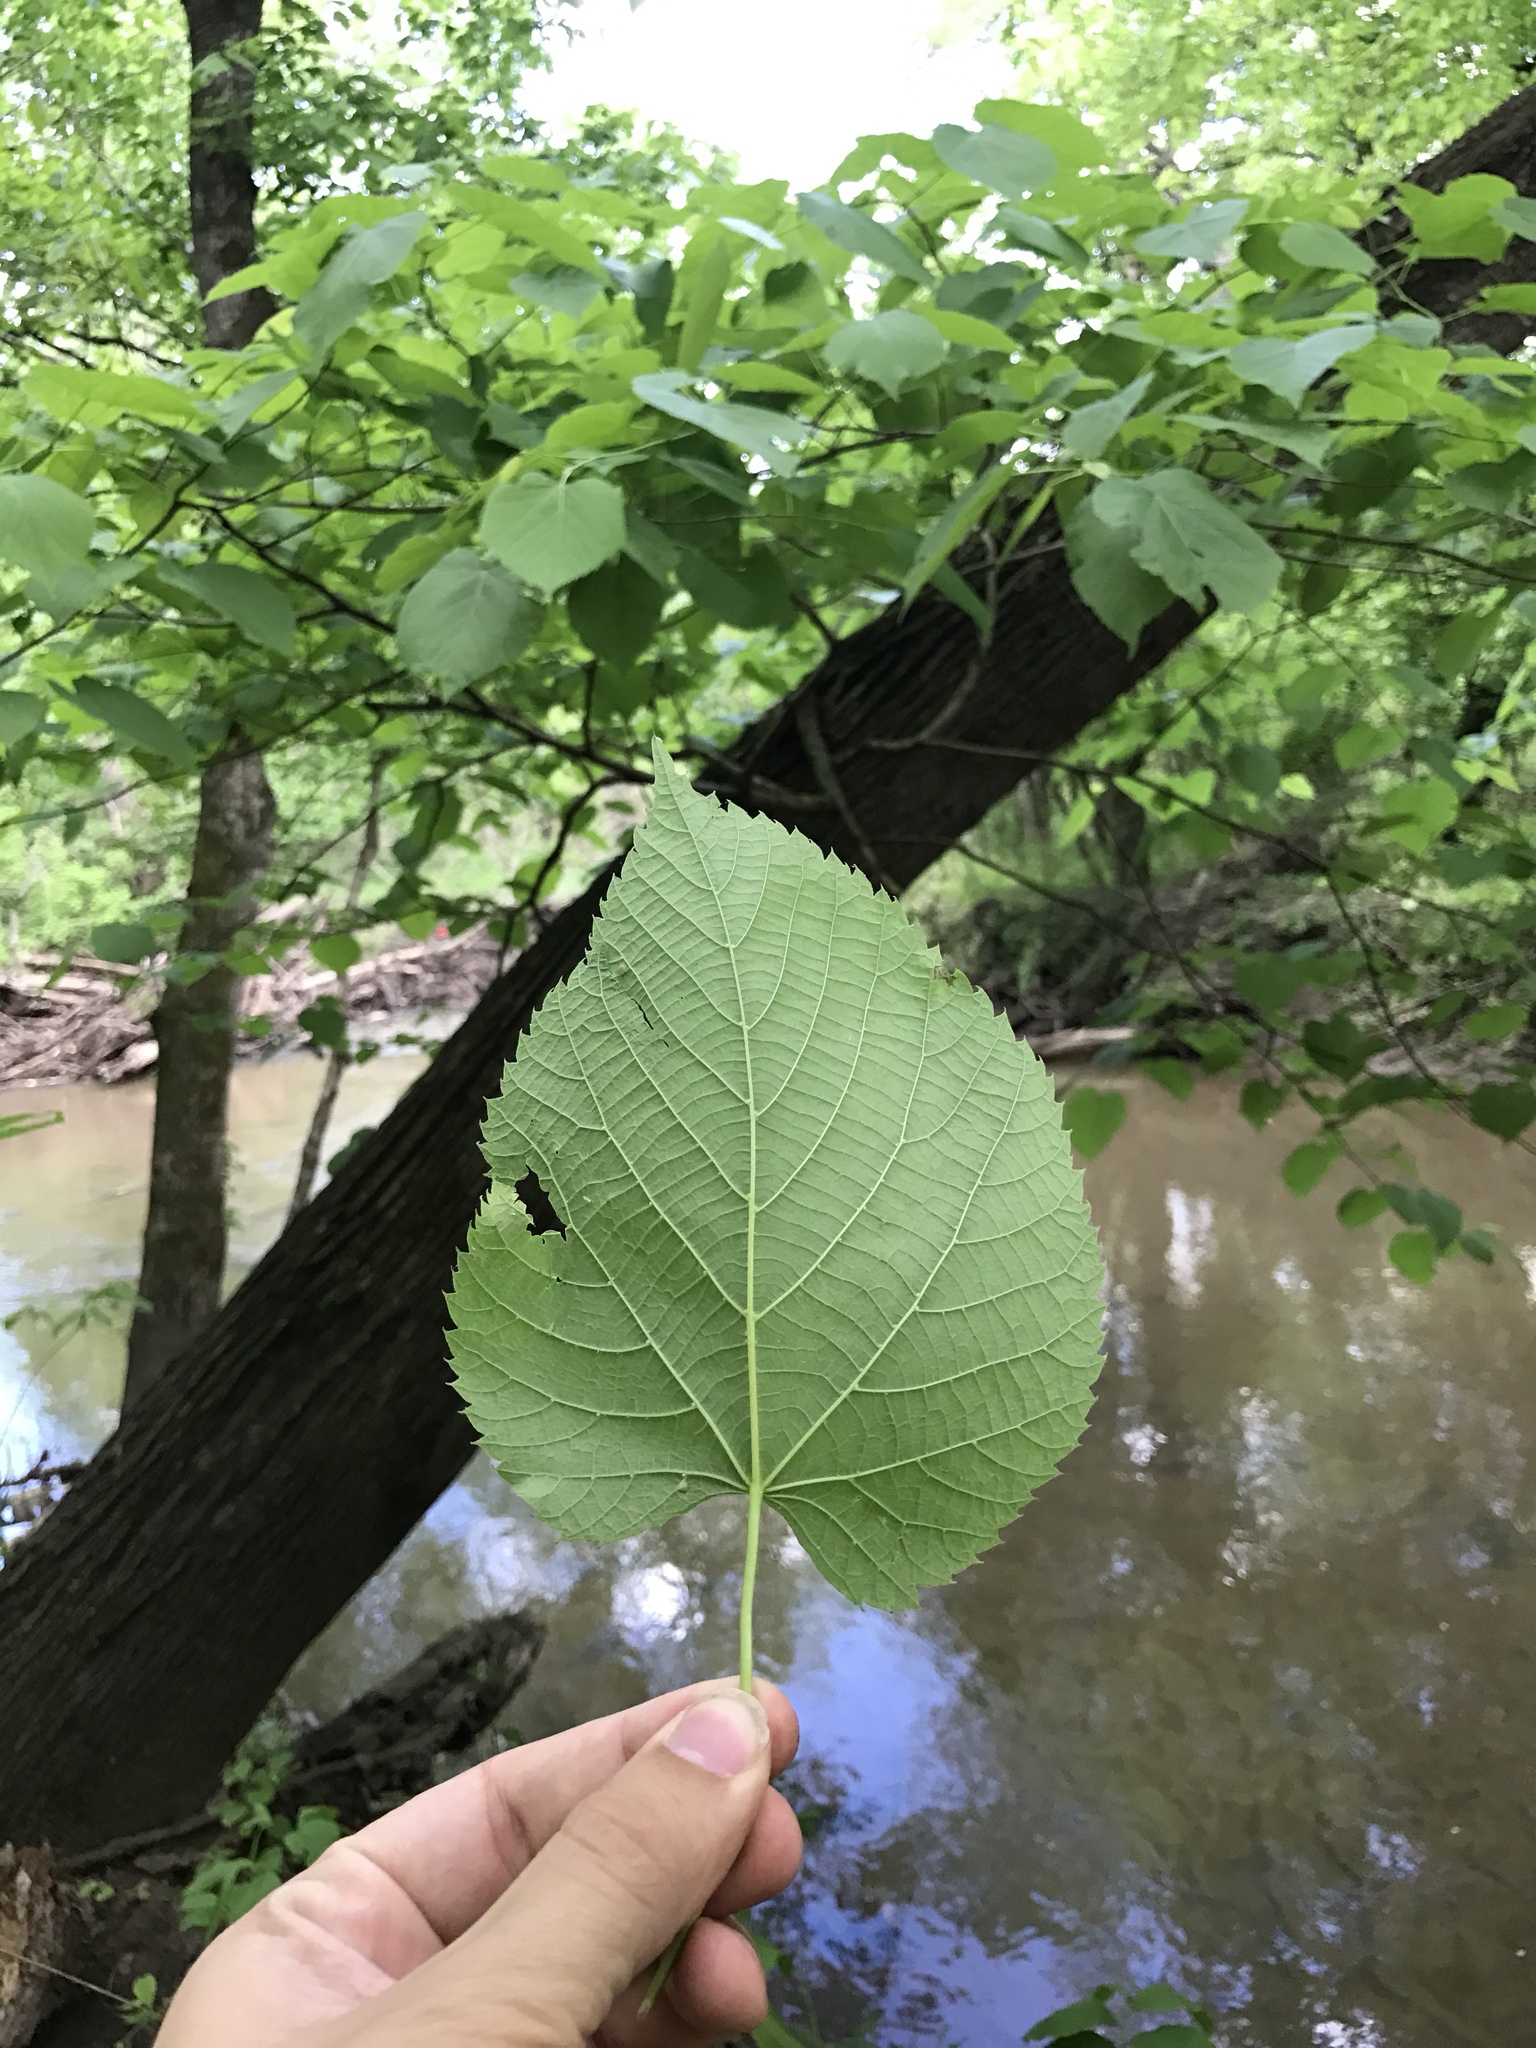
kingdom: Plantae
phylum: Tracheophyta
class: Magnoliopsida
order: Malvales
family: Malvaceae
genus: Tilia
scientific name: Tilia americana
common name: Basswood
